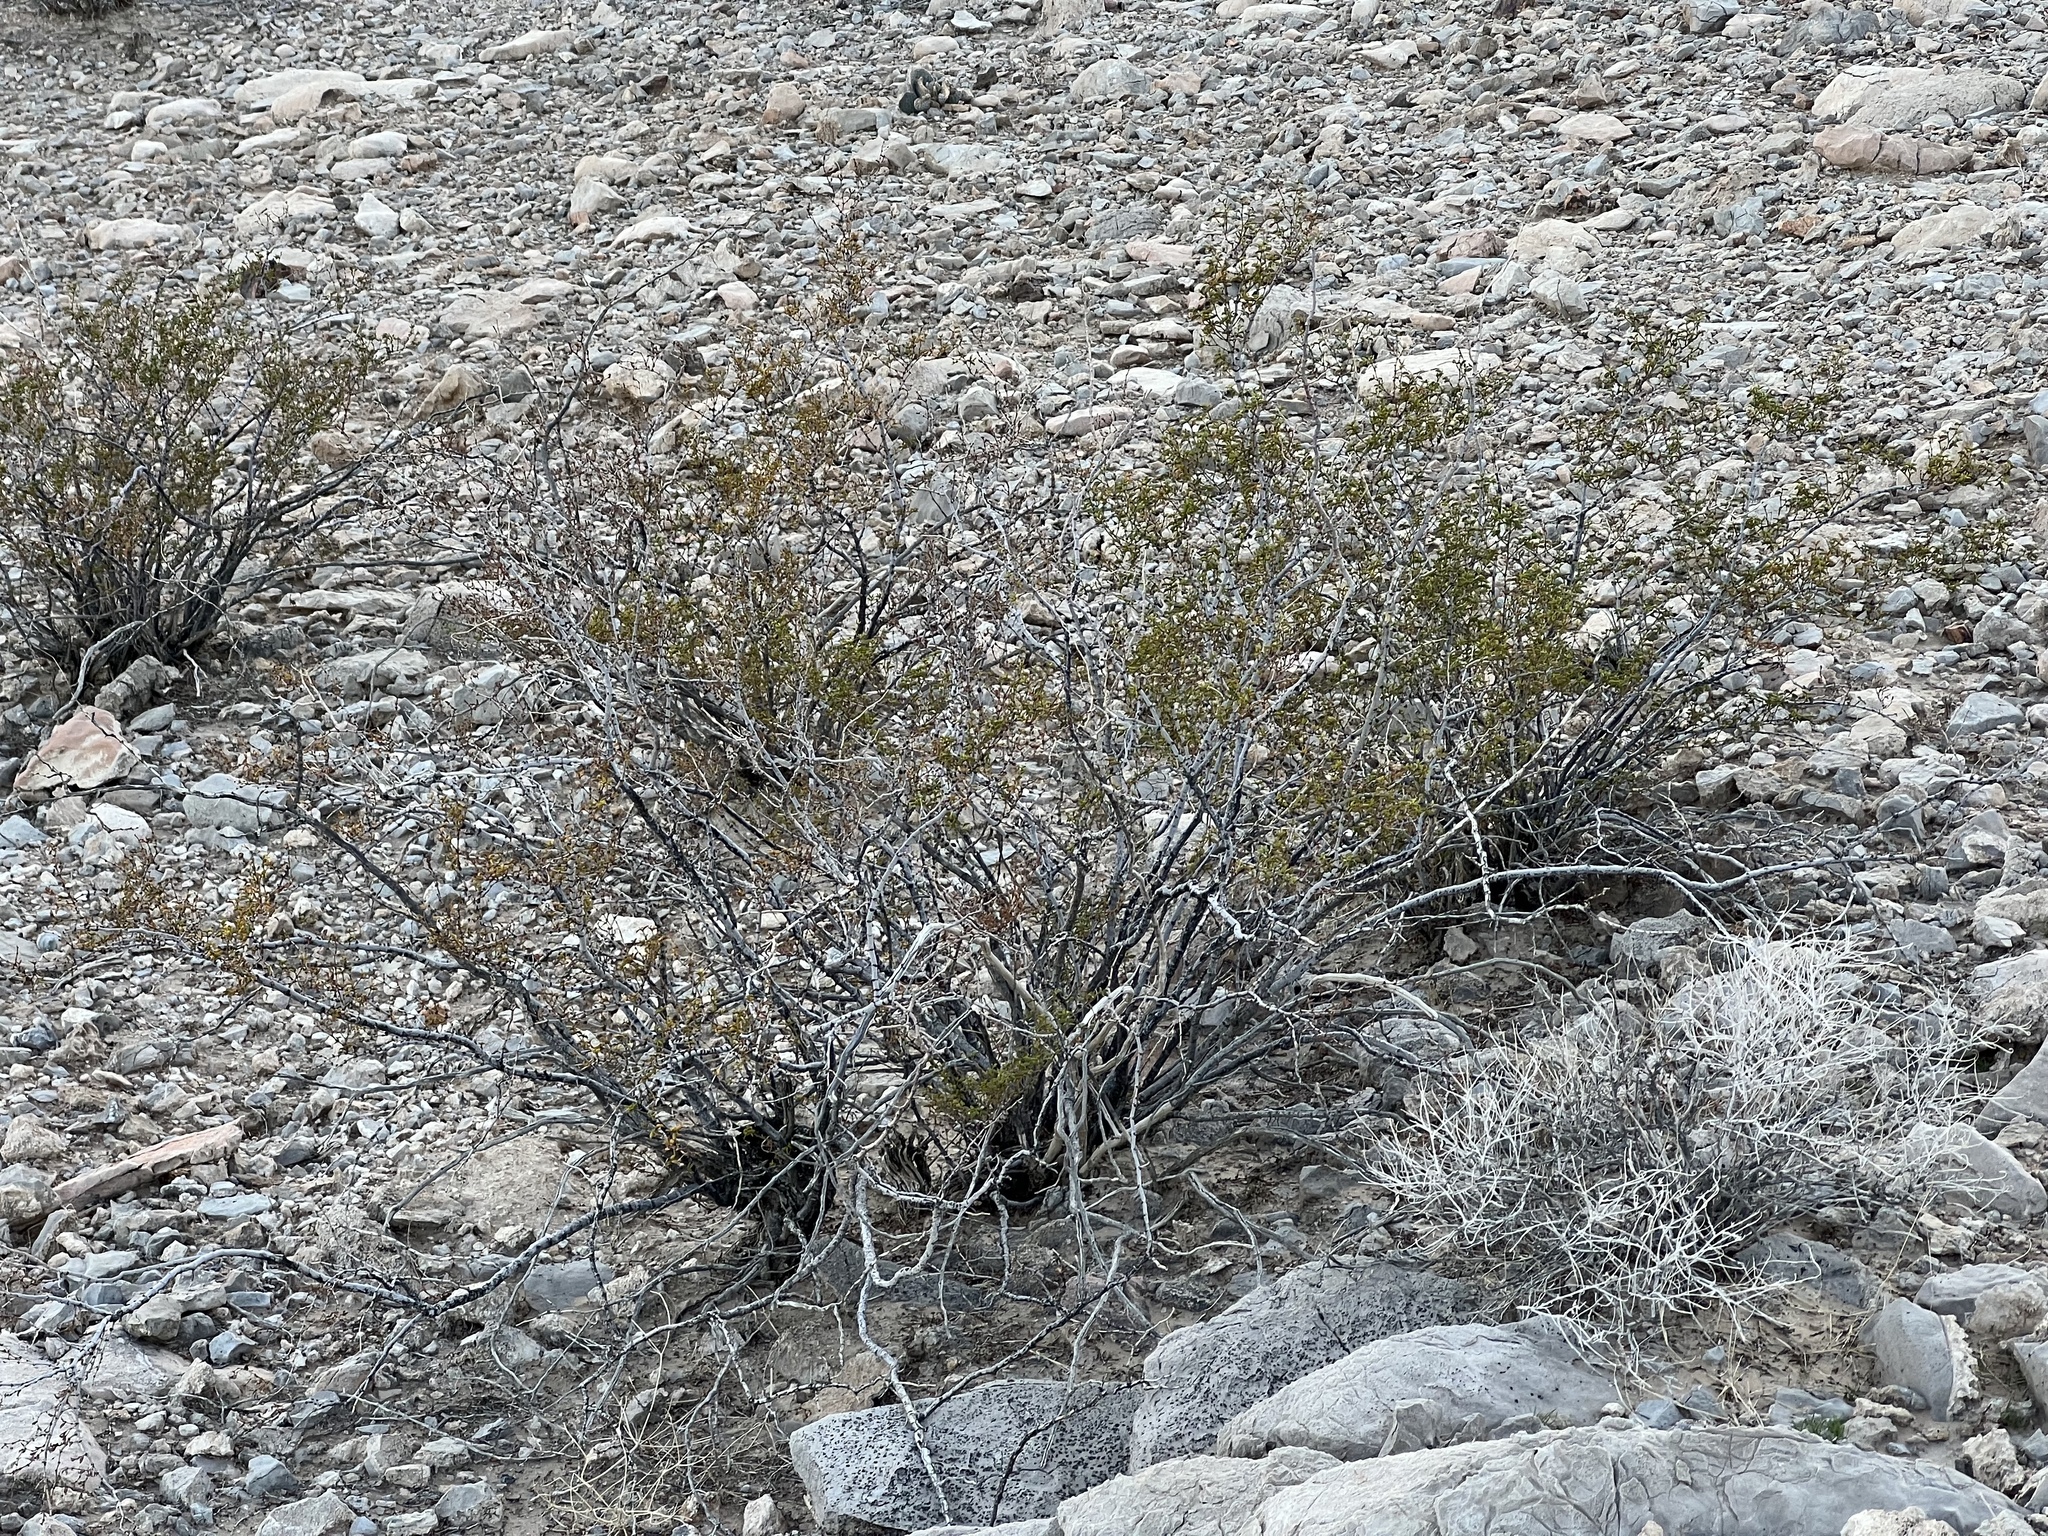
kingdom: Plantae
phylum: Tracheophyta
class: Magnoliopsida
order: Zygophyllales
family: Zygophyllaceae
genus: Larrea
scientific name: Larrea tridentata
